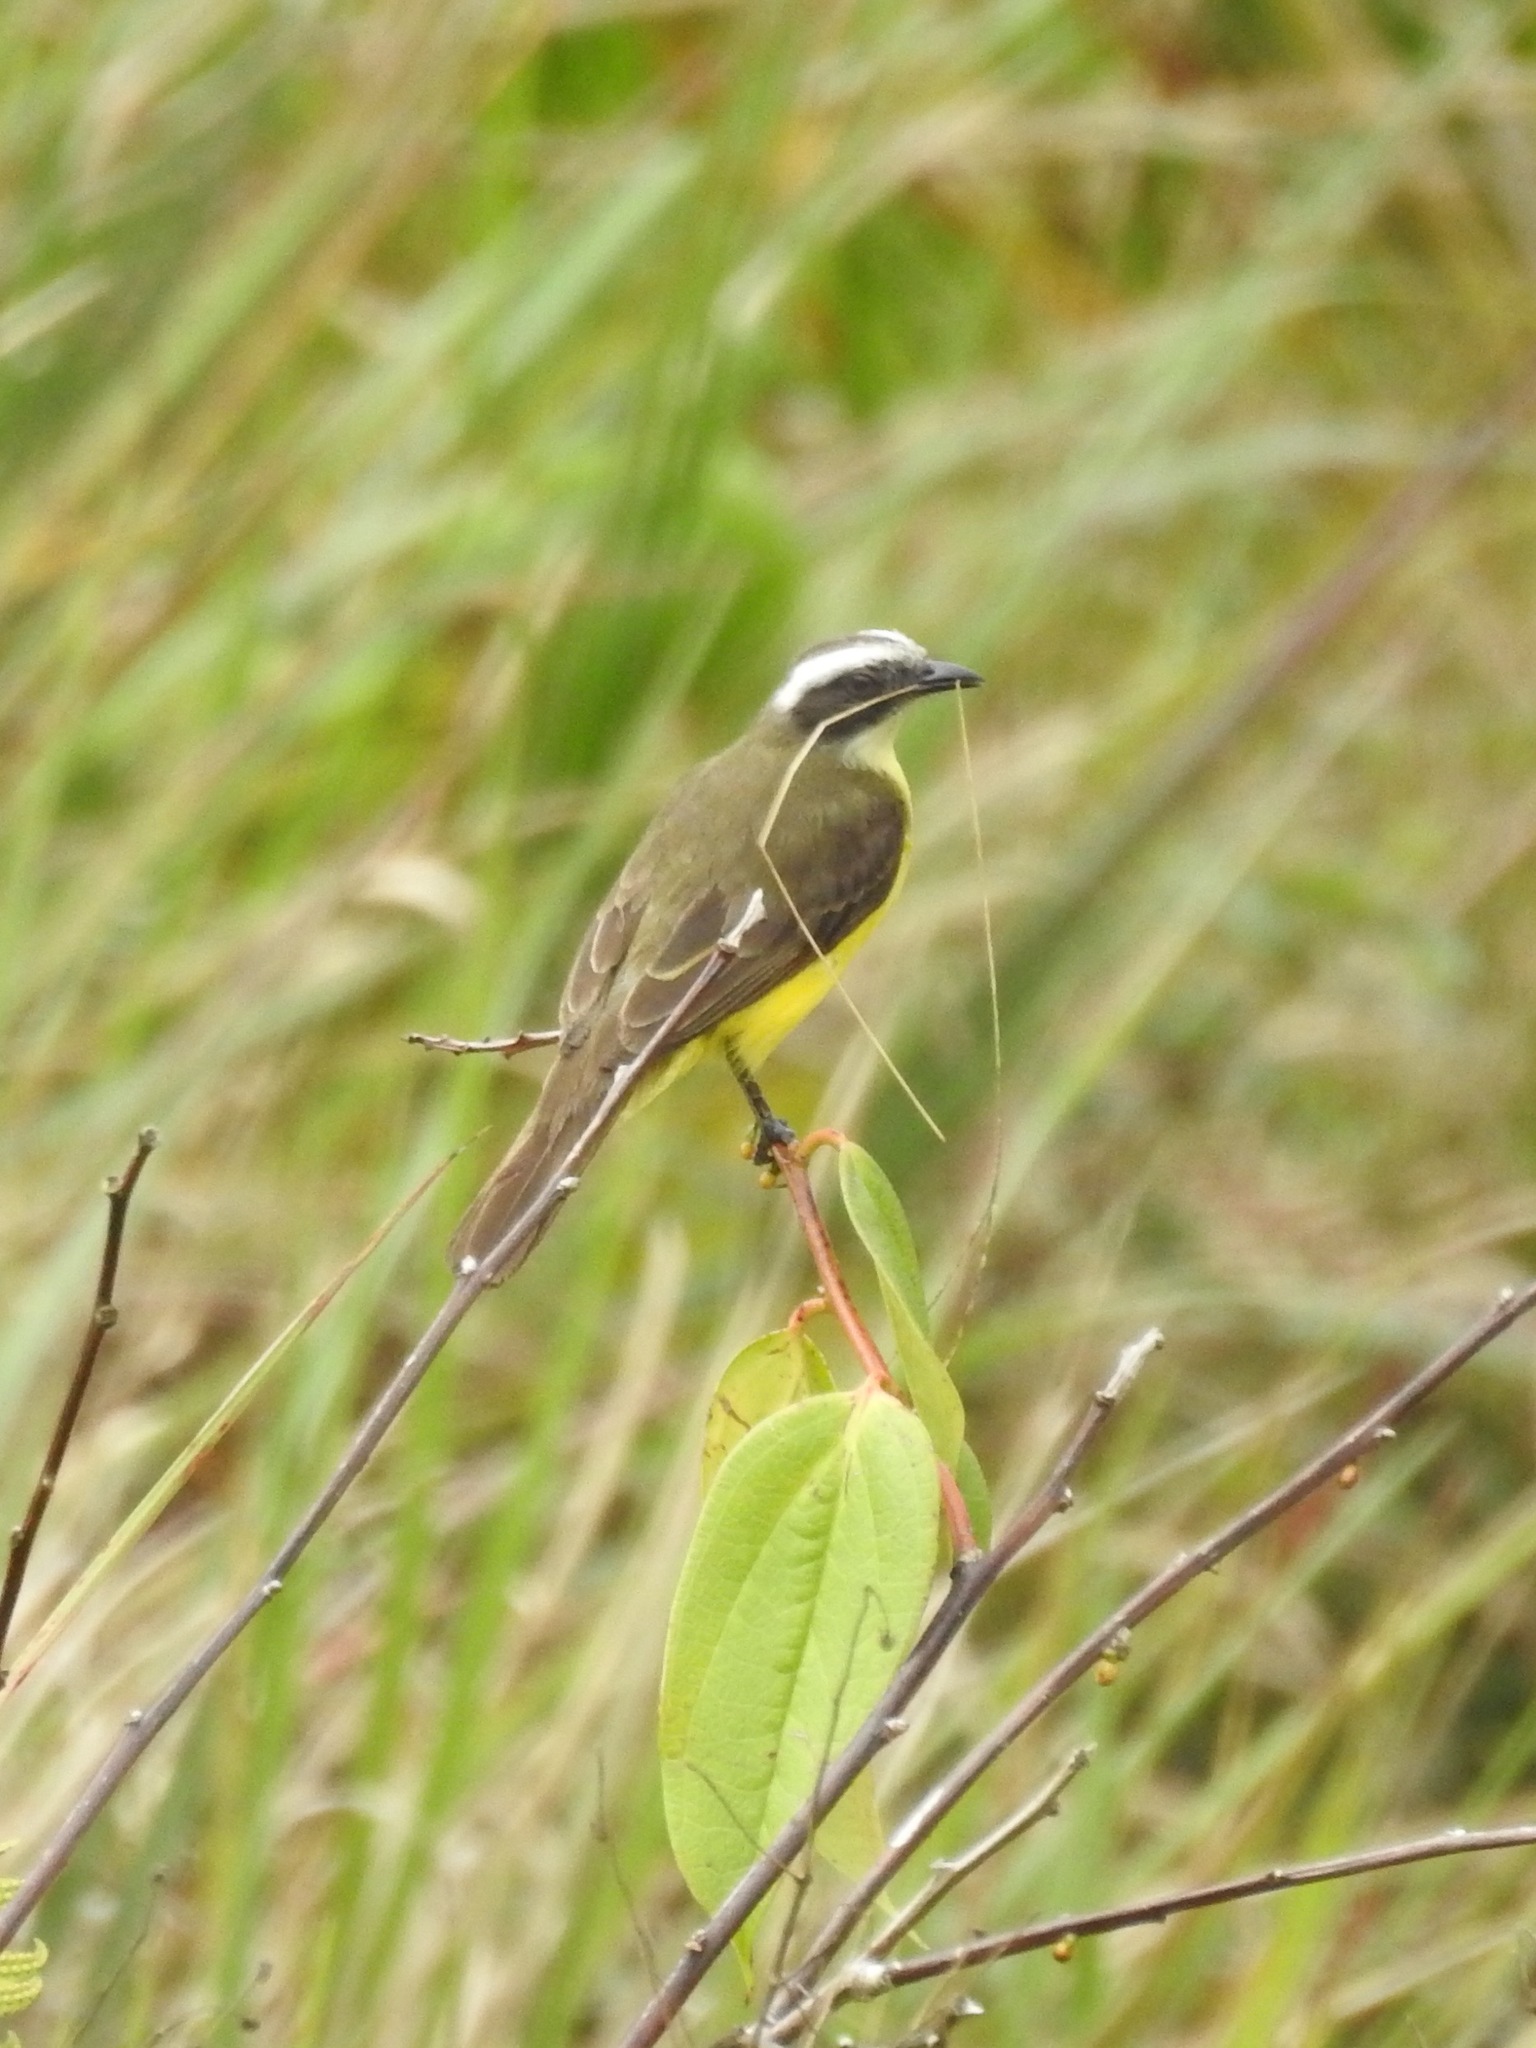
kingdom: Animalia
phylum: Chordata
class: Aves
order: Passeriformes
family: Tyrannidae
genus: Myiozetetes
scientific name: Myiozetetes similis
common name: Social flycatcher
